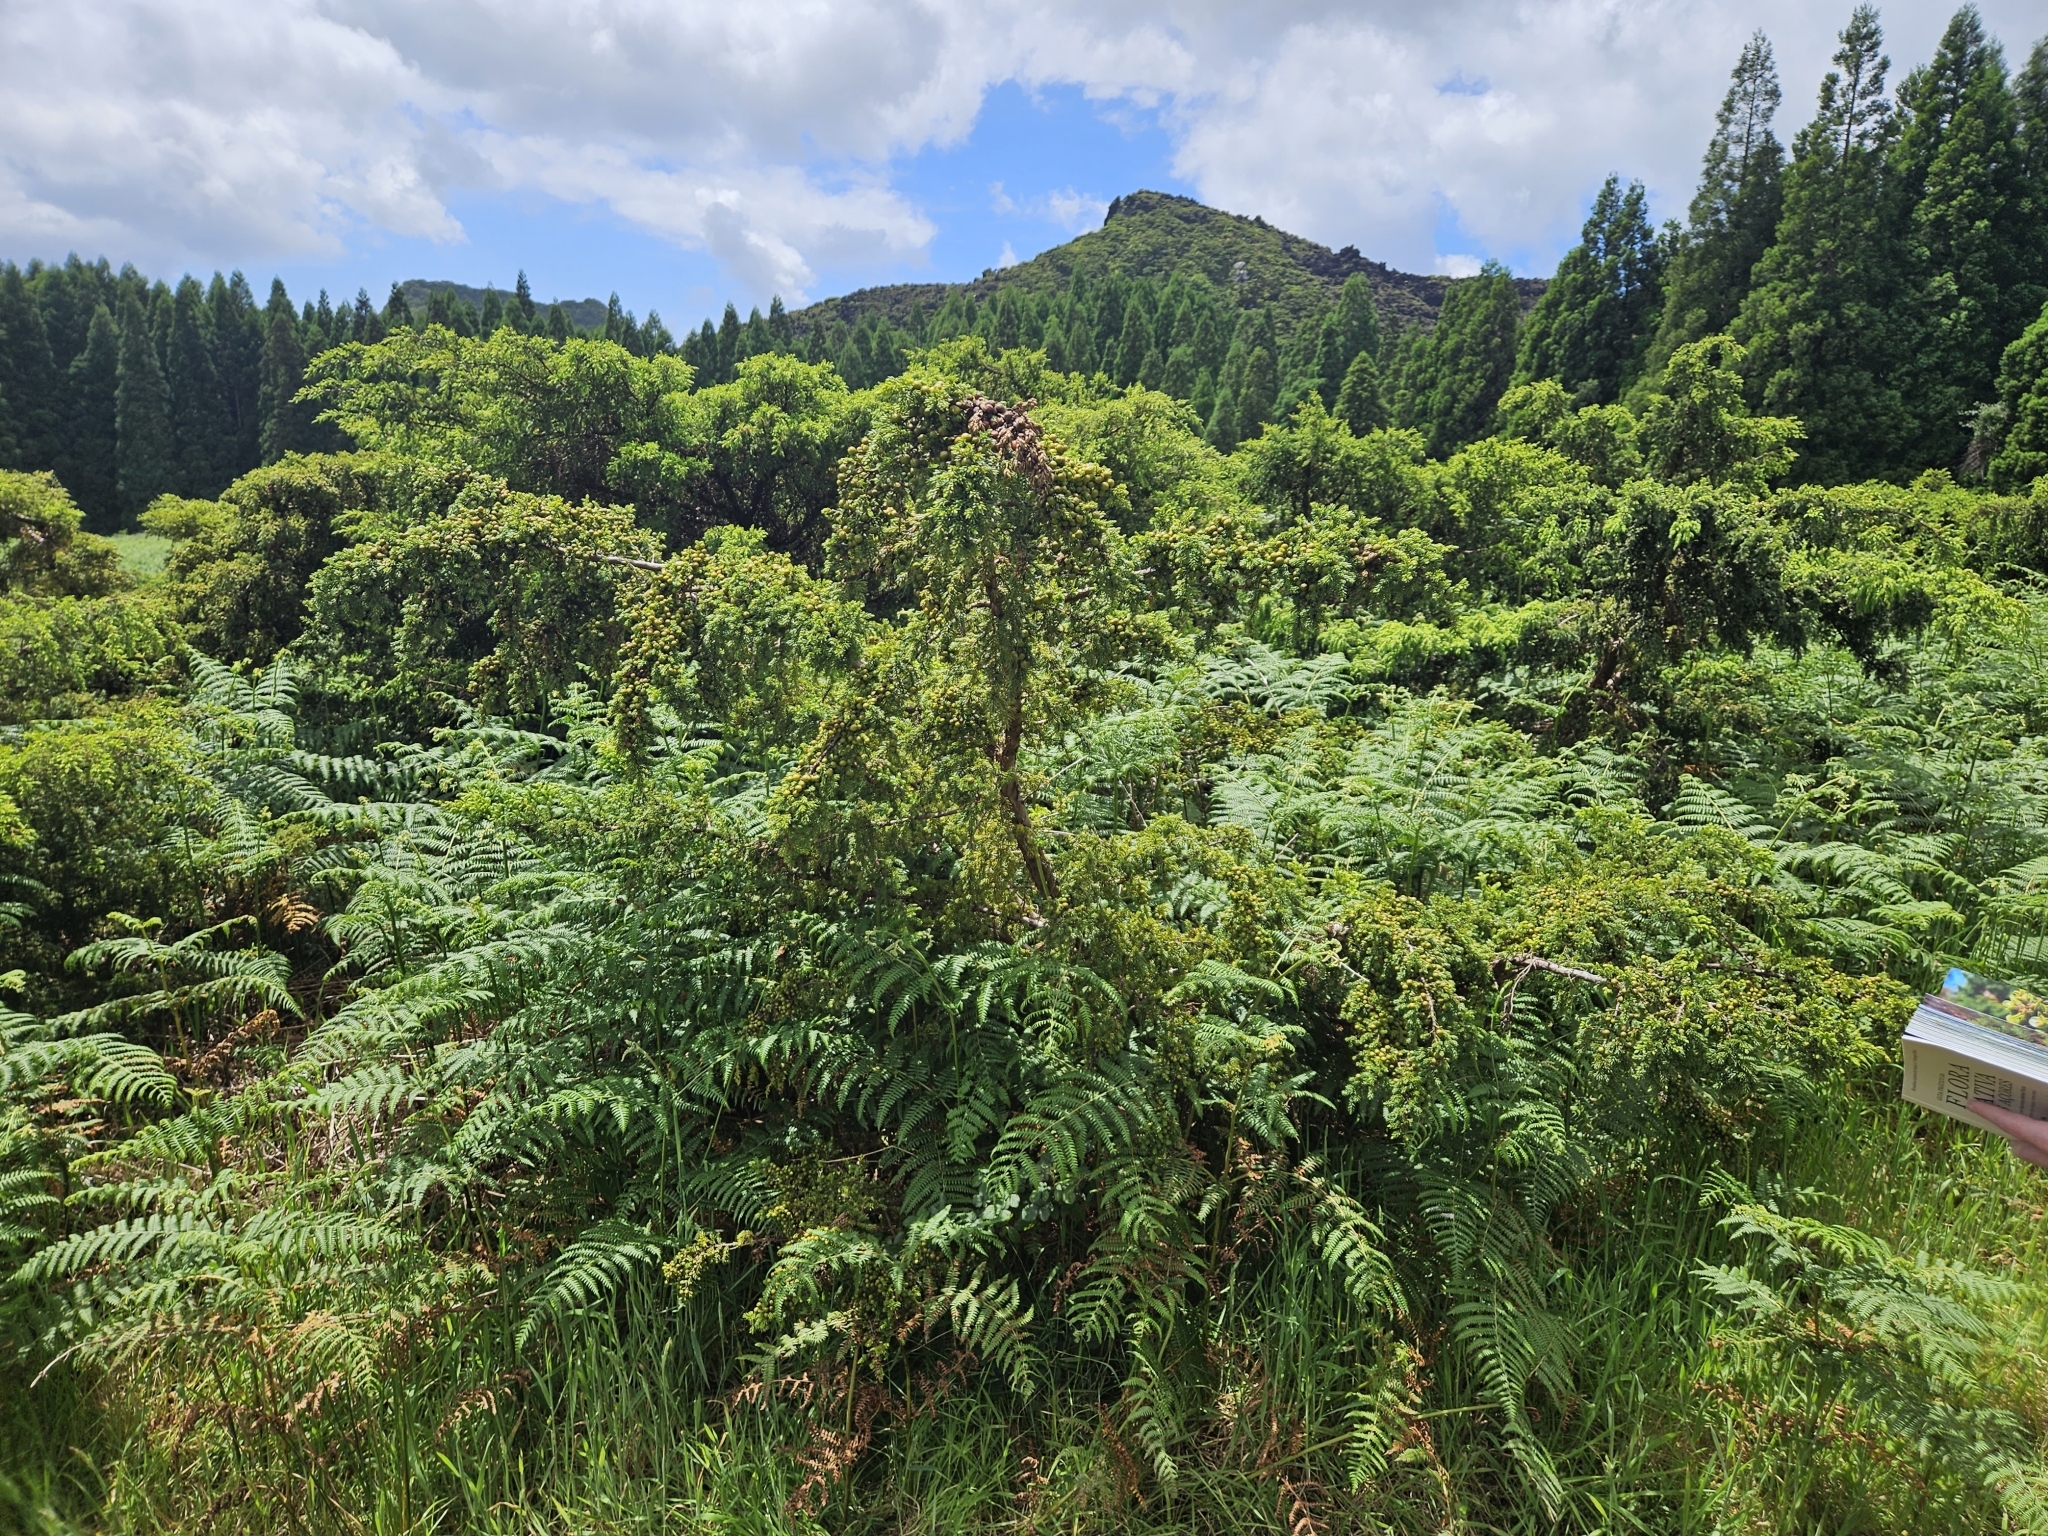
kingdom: Plantae
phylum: Tracheophyta
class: Pinopsida
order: Pinales
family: Cupressaceae
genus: Juniperus
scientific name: Juniperus brevifolia
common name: Azores juniper
